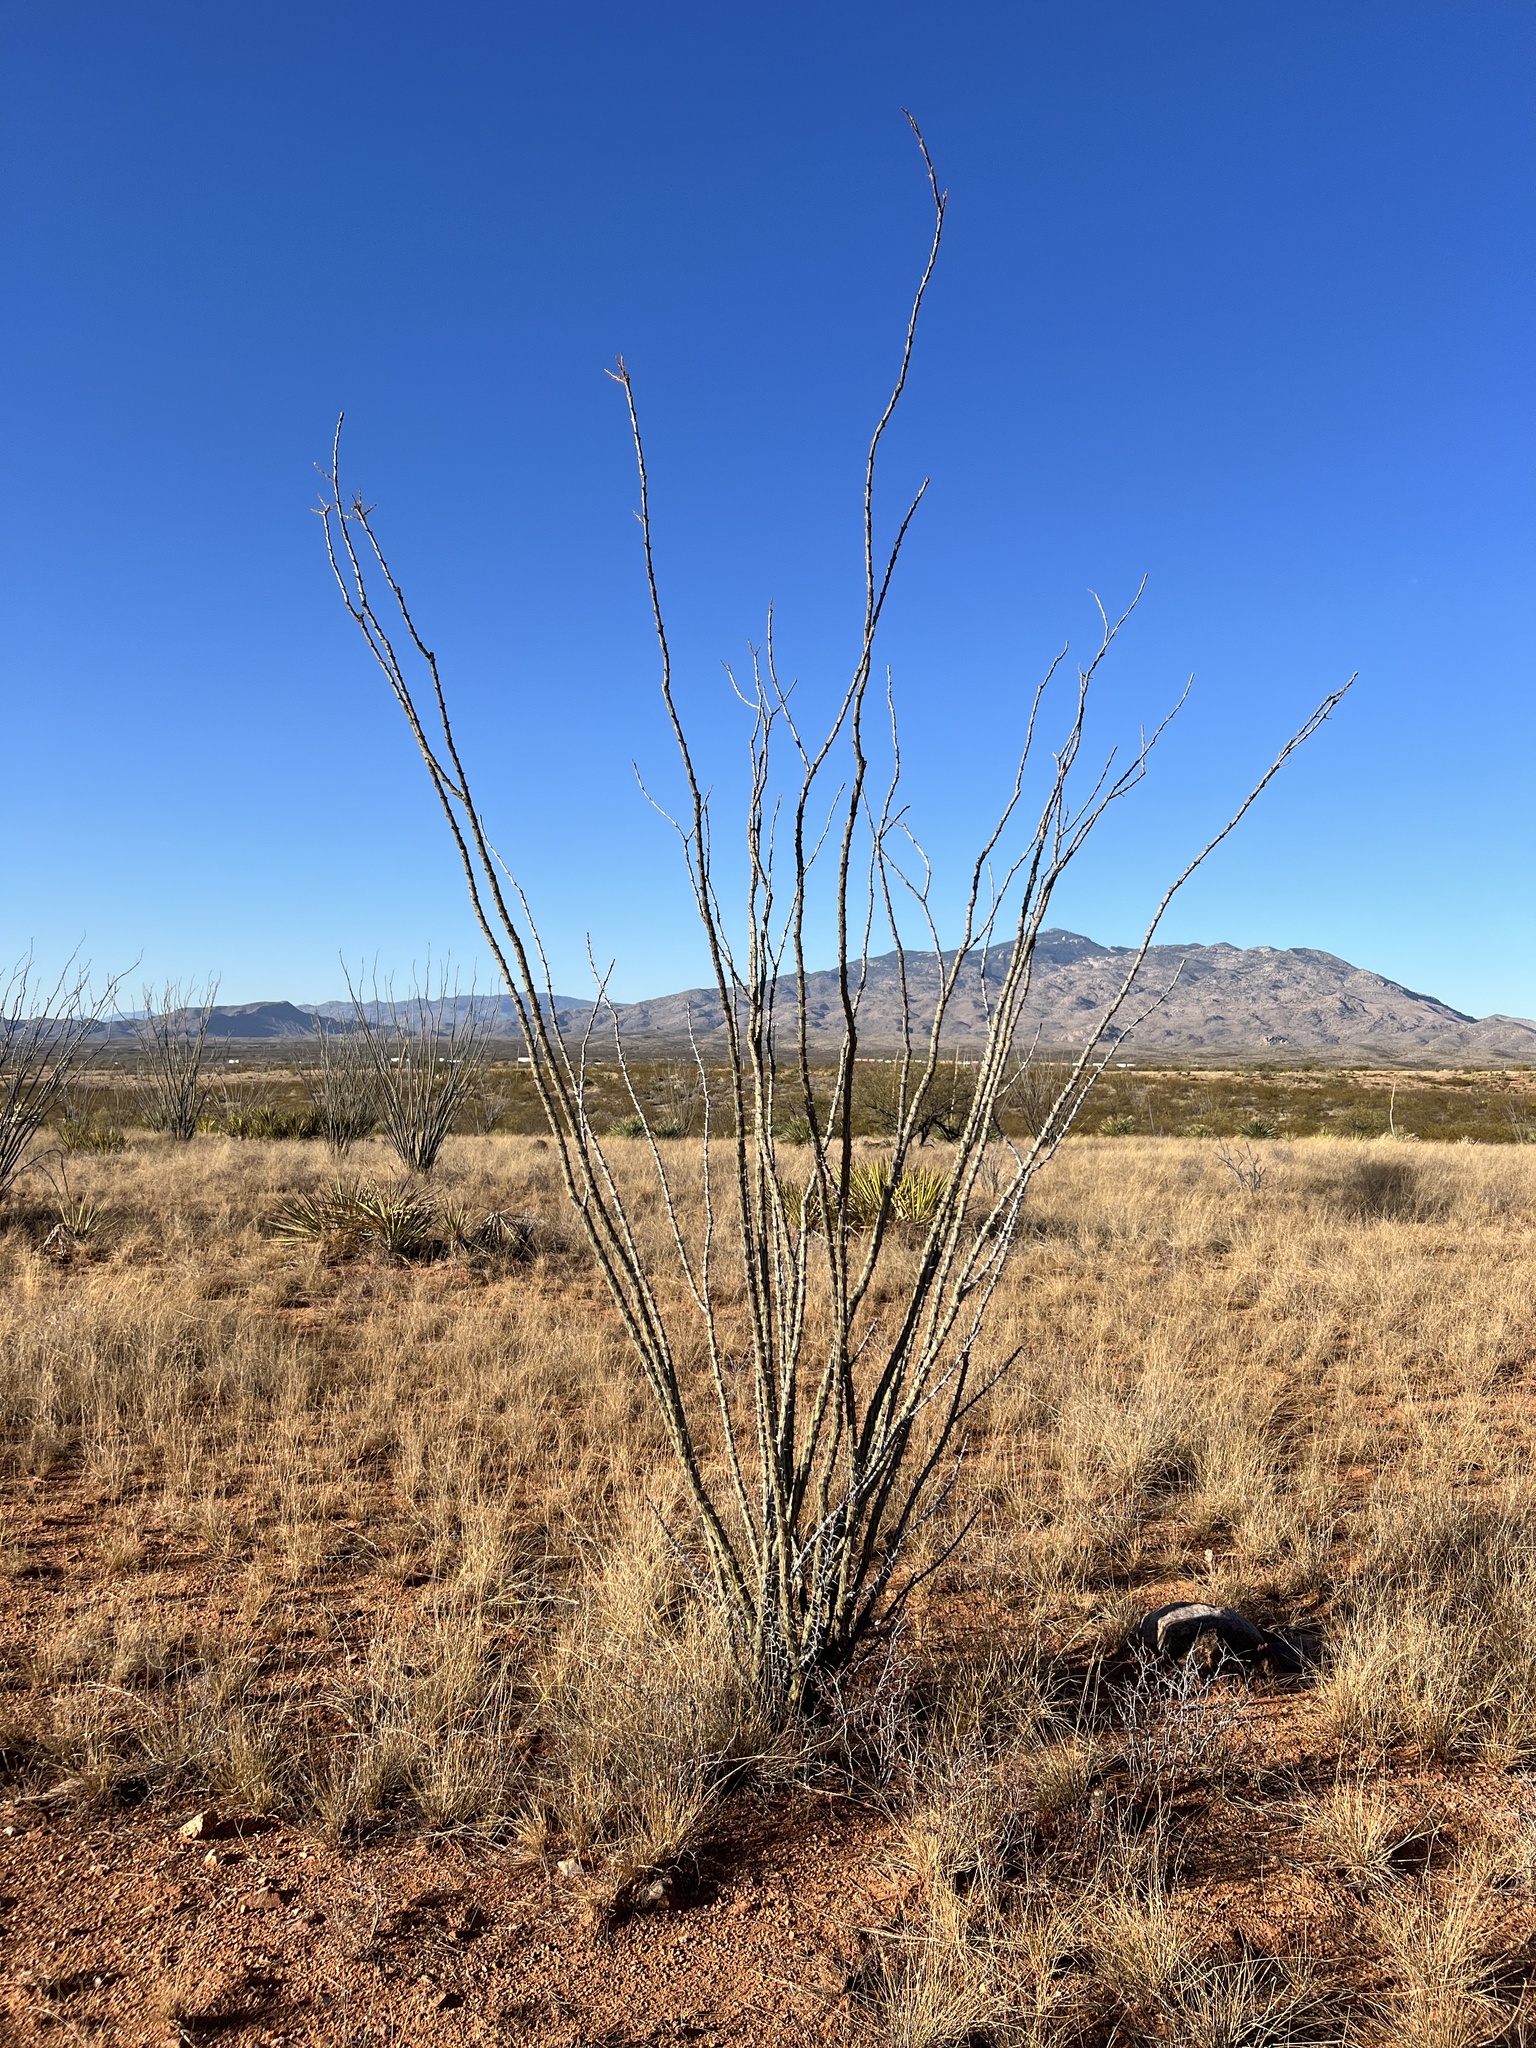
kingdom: Plantae
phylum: Tracheophyta
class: Magnoliopsida
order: Ericales
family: Fouquieriaceae
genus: Fouquieria
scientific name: Fouquieria splendens
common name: Vine-cactus
